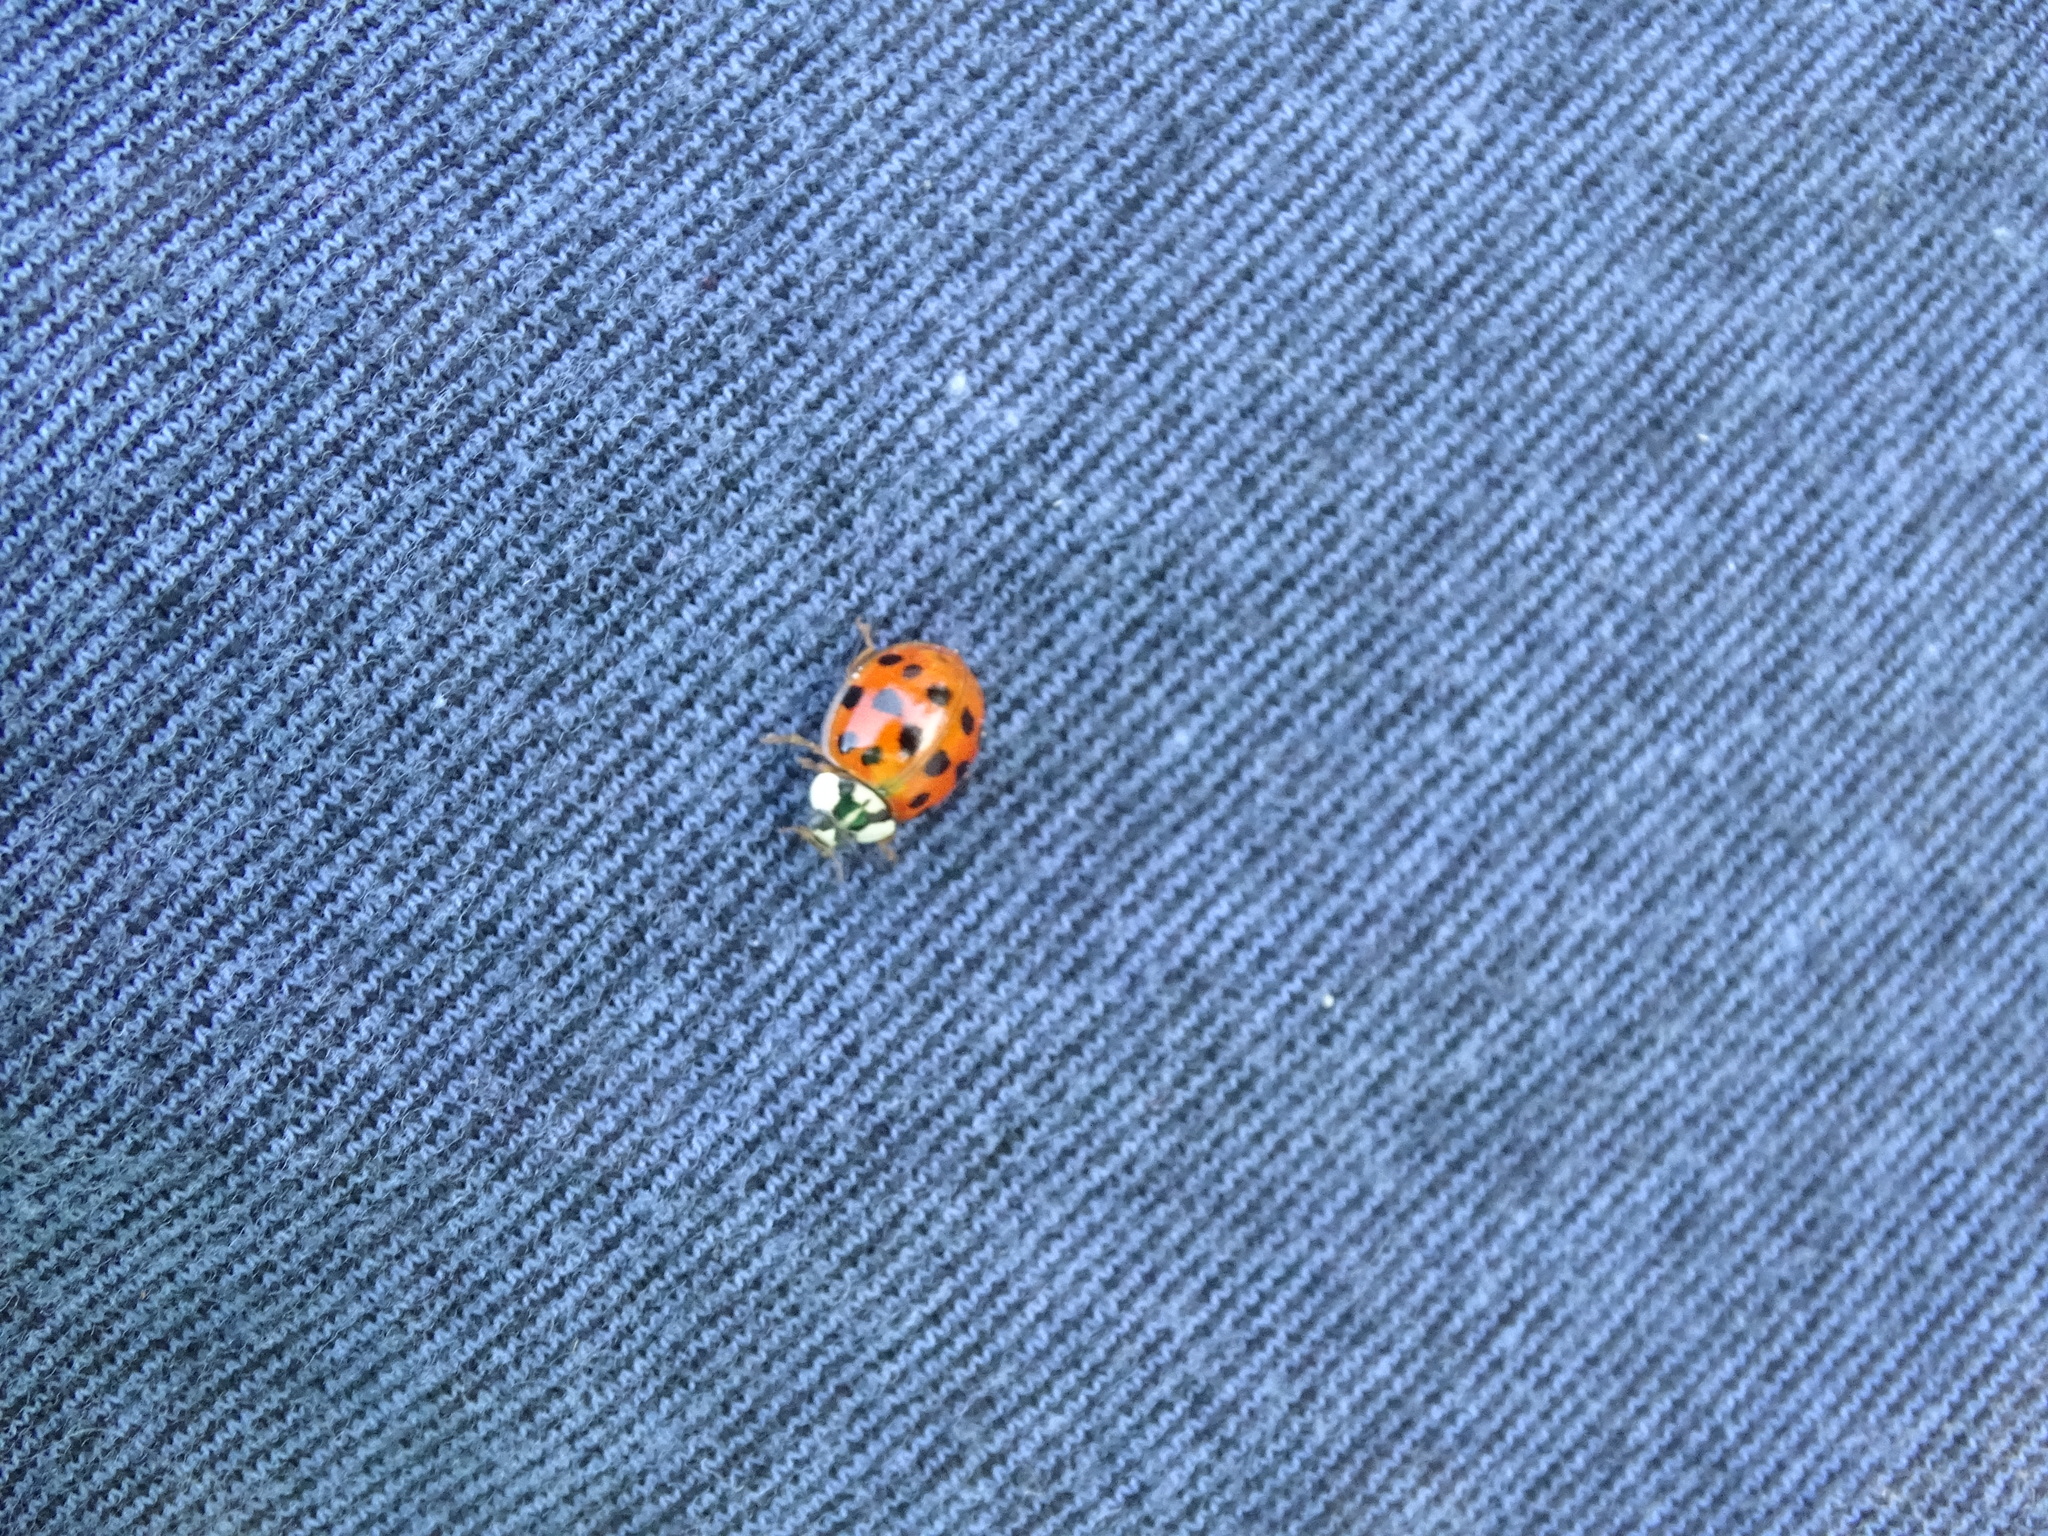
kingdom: Animalia
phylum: Arthropoda
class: Insecta
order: Coleoptera
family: Coccinellidae
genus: Harmonia
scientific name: Harmonia axyridis
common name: Harlequin ladybird
